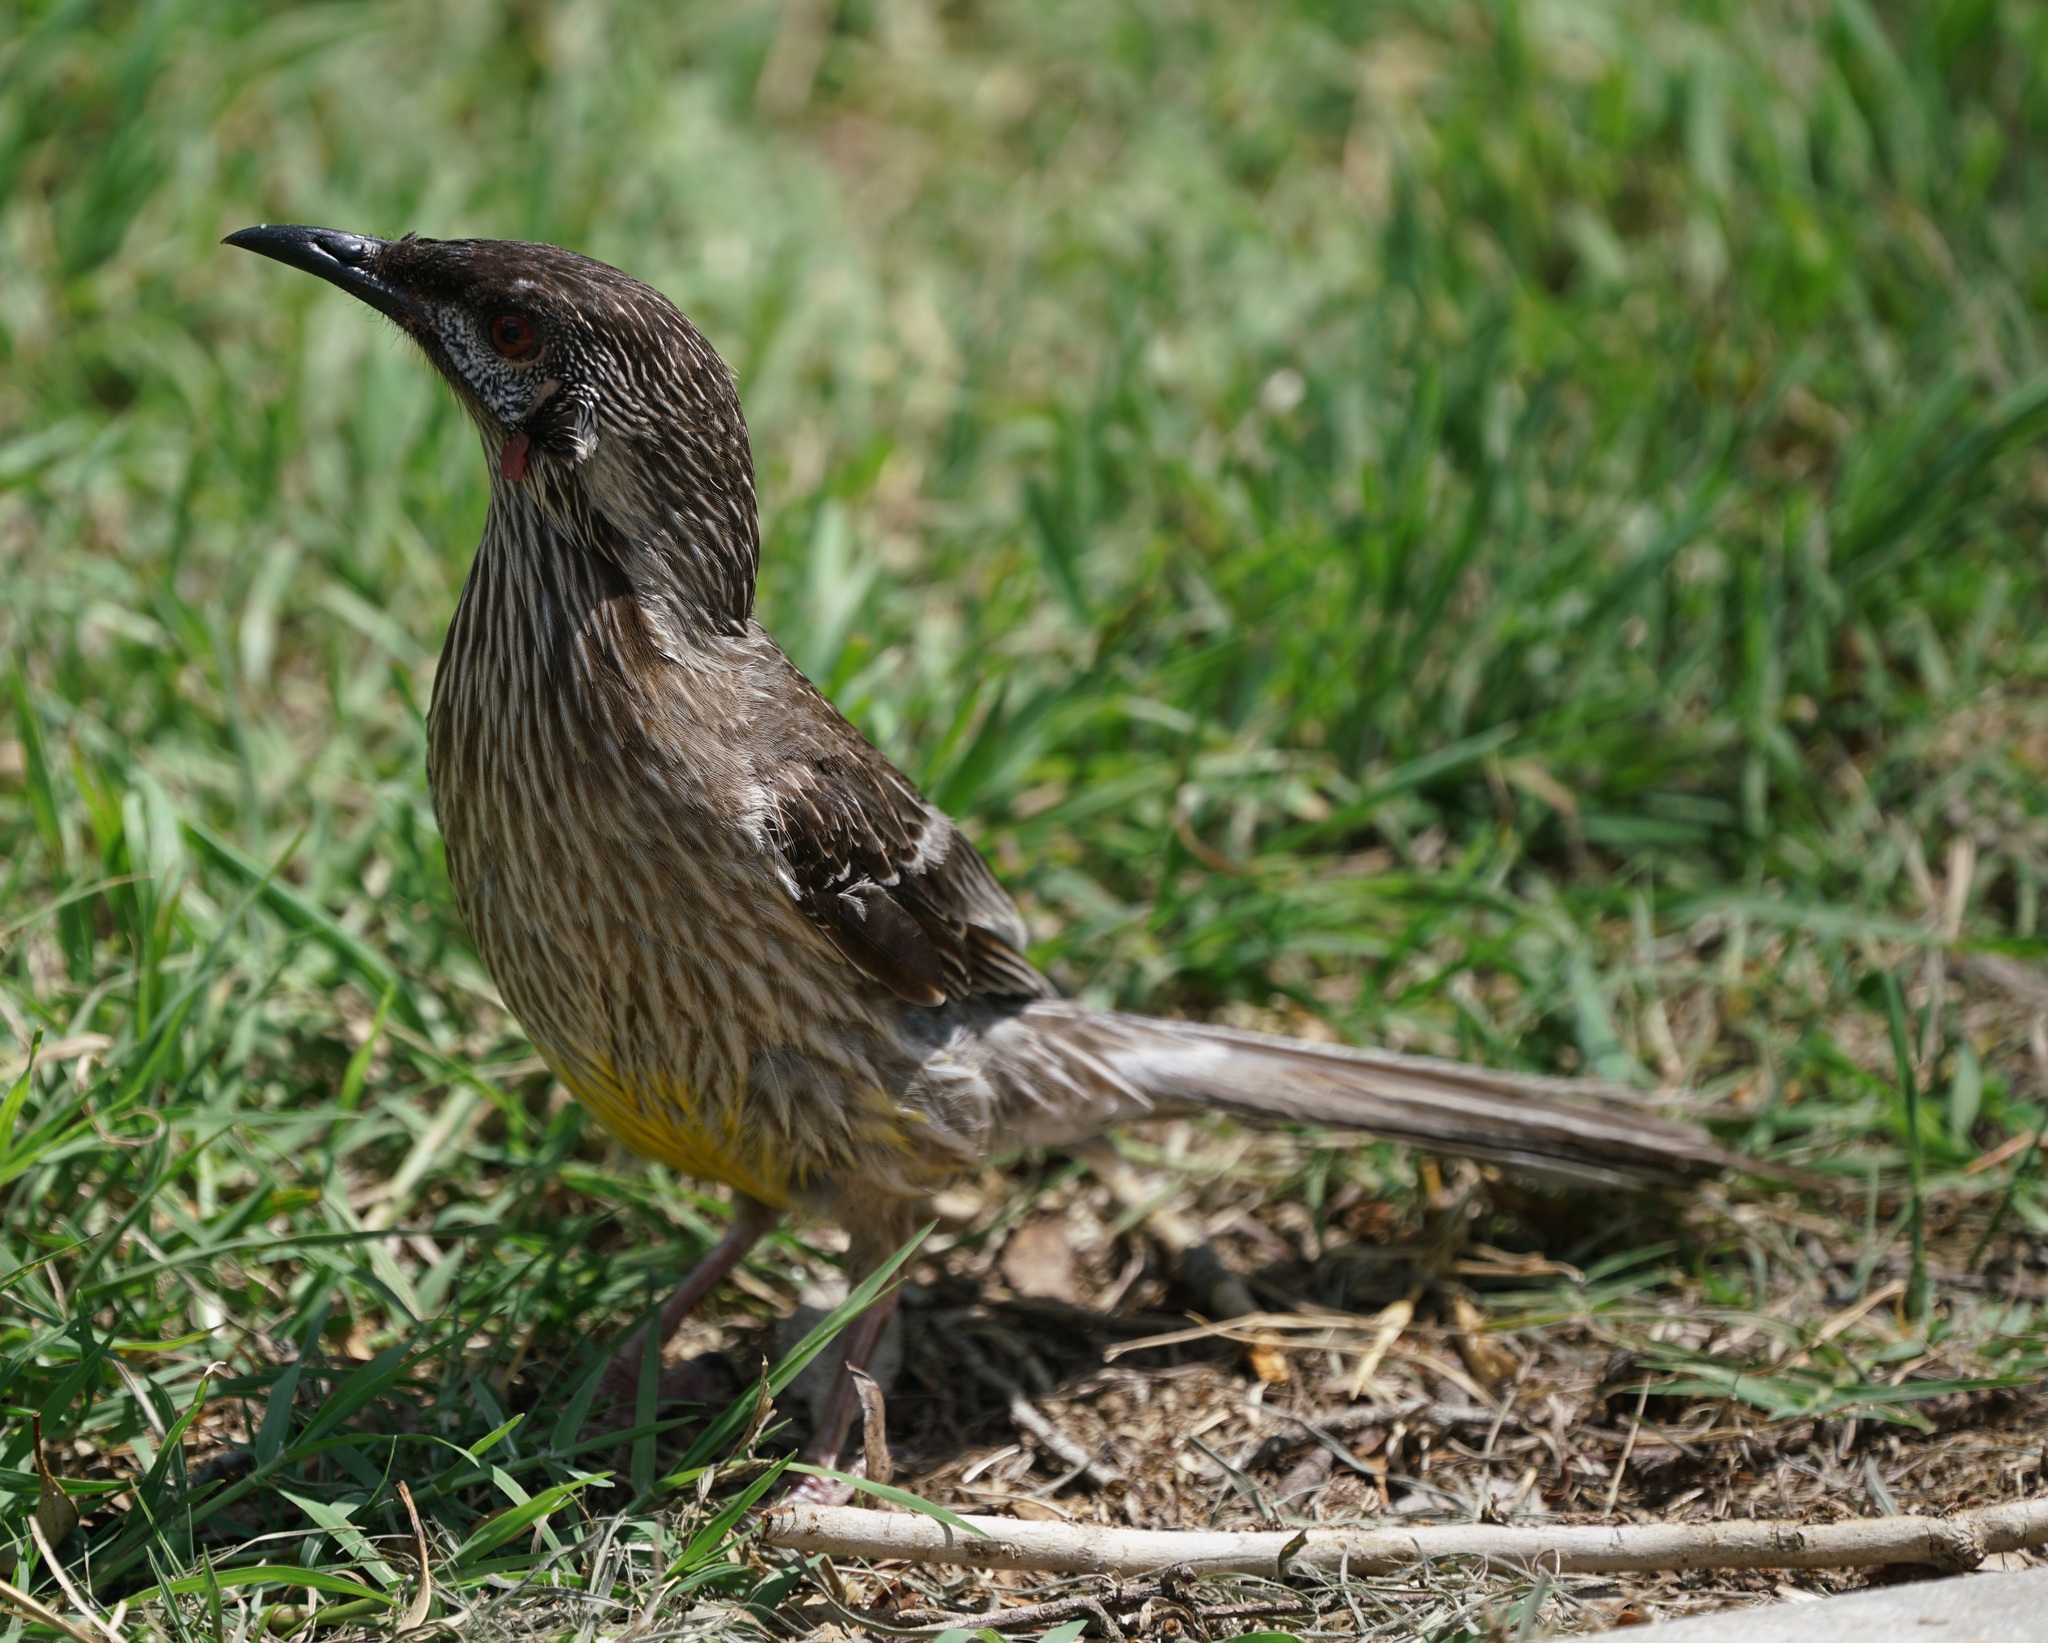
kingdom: Animalia
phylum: Chordata
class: Aves
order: Passeriformes
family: Meliphagidae
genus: Anthochaera
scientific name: Anthochaera carunculata
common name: Red wattlebird
